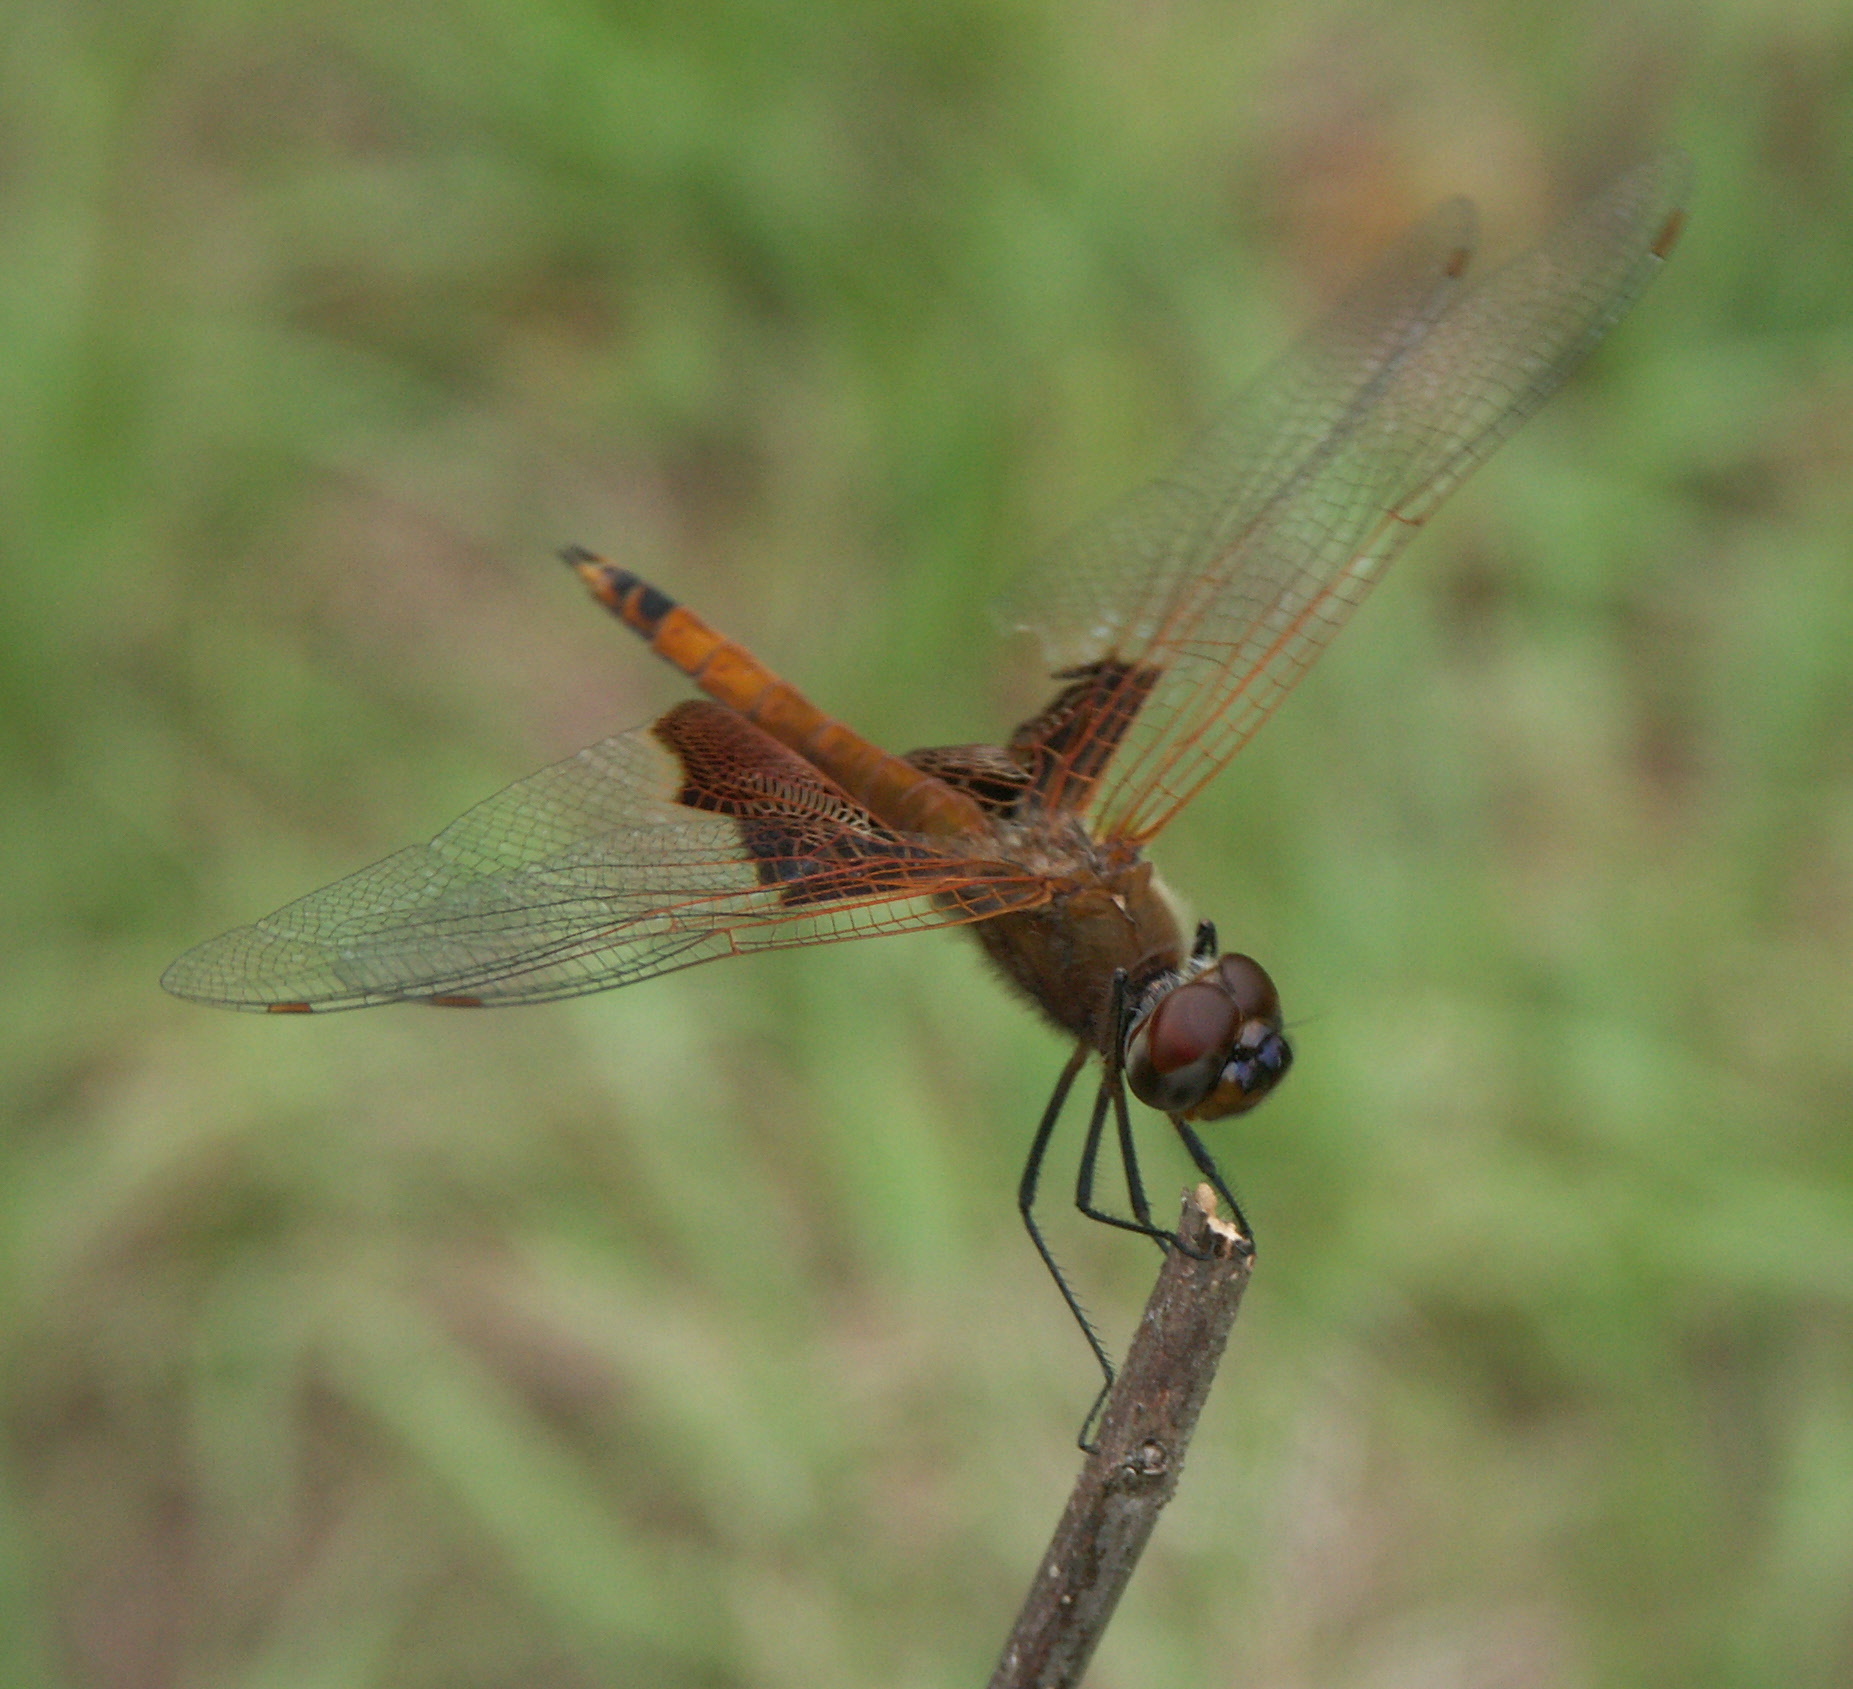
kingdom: Animalia
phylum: Arthropoda
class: Insecta
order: Odonata
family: Libellulidae
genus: Tramea
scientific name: Tramea carolina
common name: Carolina saddlebags
